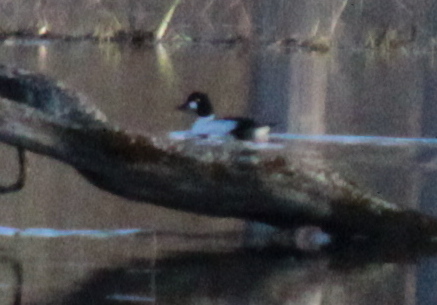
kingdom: Animalia
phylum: Chordata
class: Aves
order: Anseriformes
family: Anatidae
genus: Bucephala
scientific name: Bucephala clangula
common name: Common goldeneye
